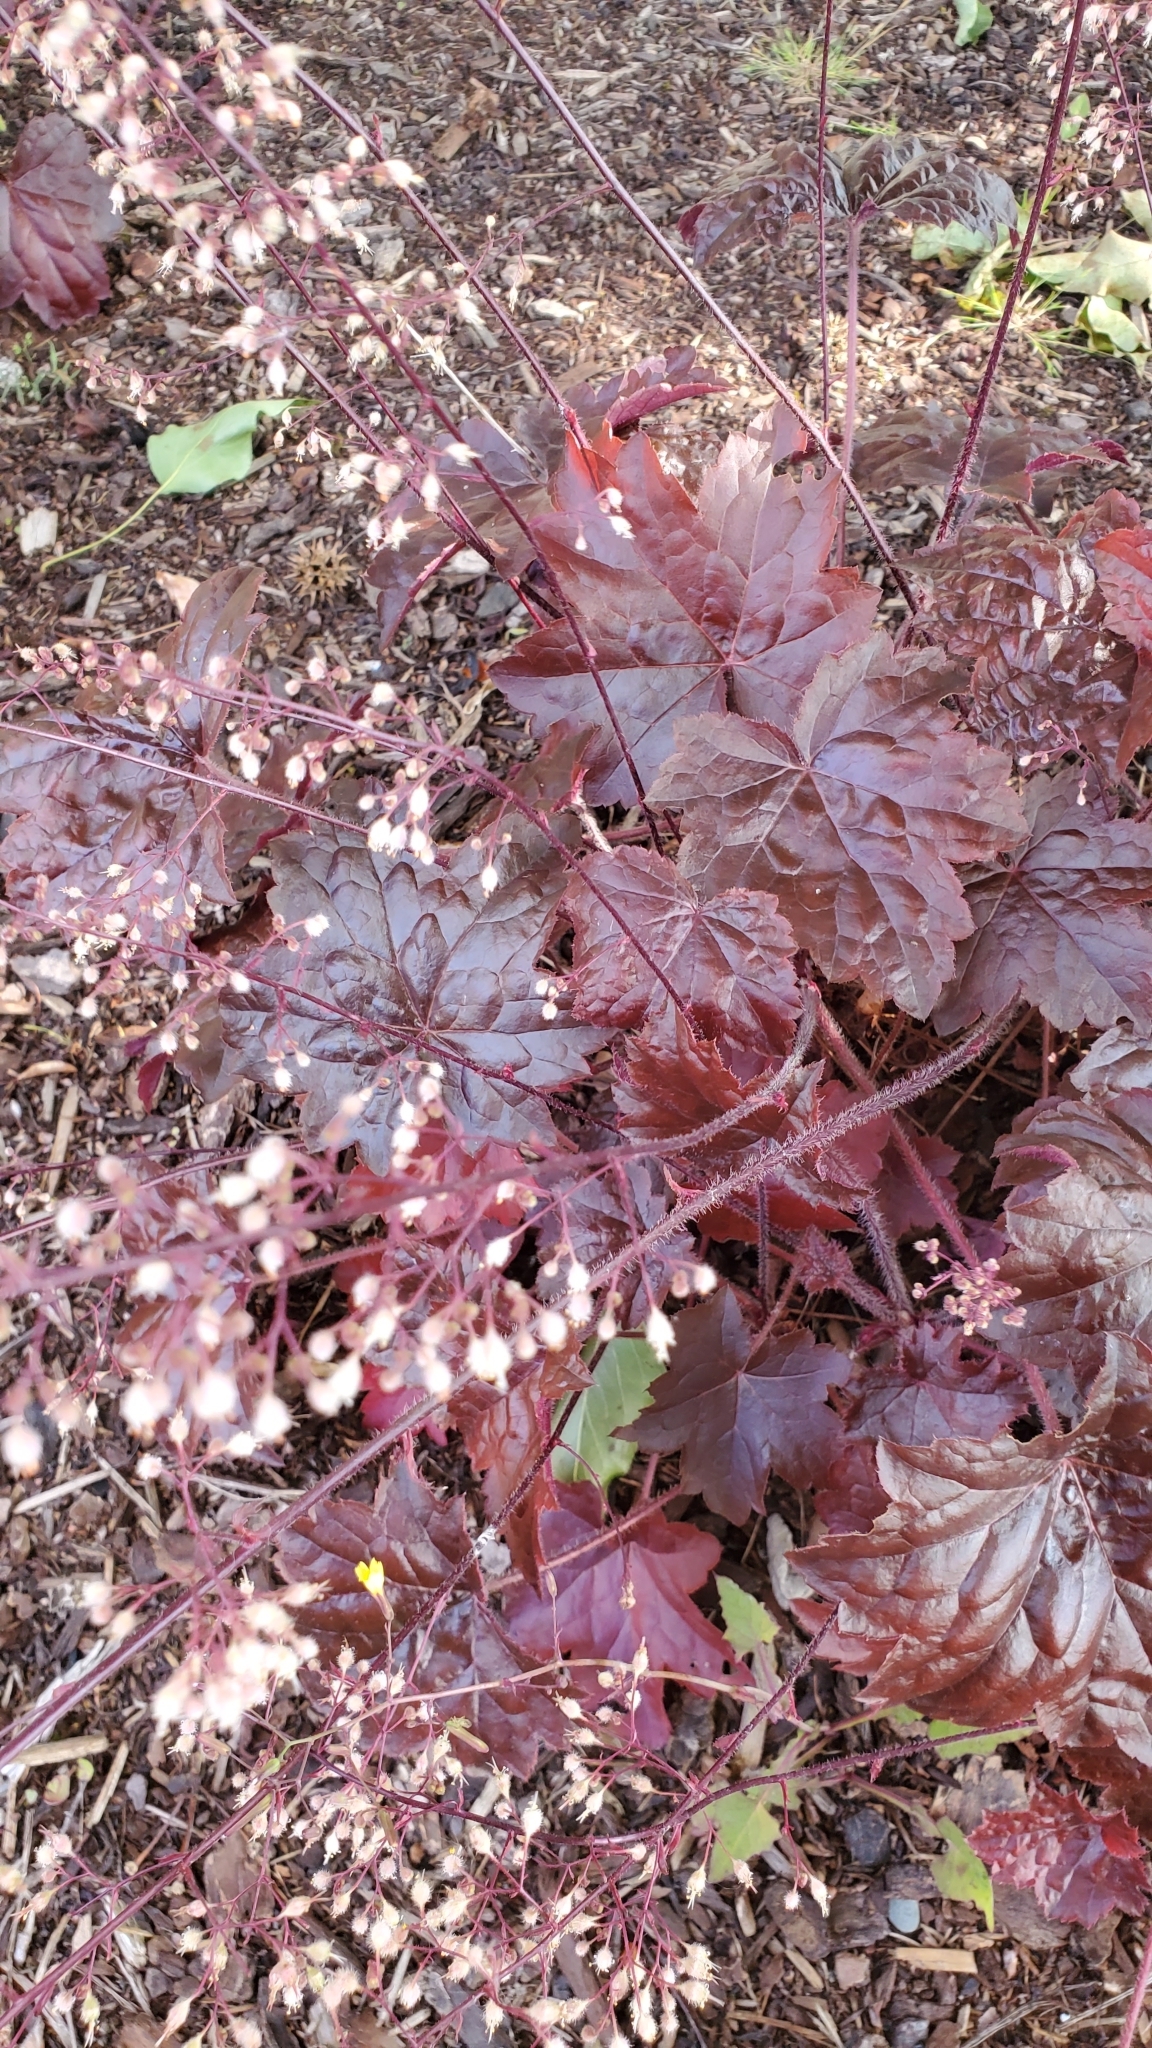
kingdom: Plantae
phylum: Tracheophyta
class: Magnoliopsida
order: Saxifragales
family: Saxifragaceae
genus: Heuchera
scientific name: Heuchera micrantha
